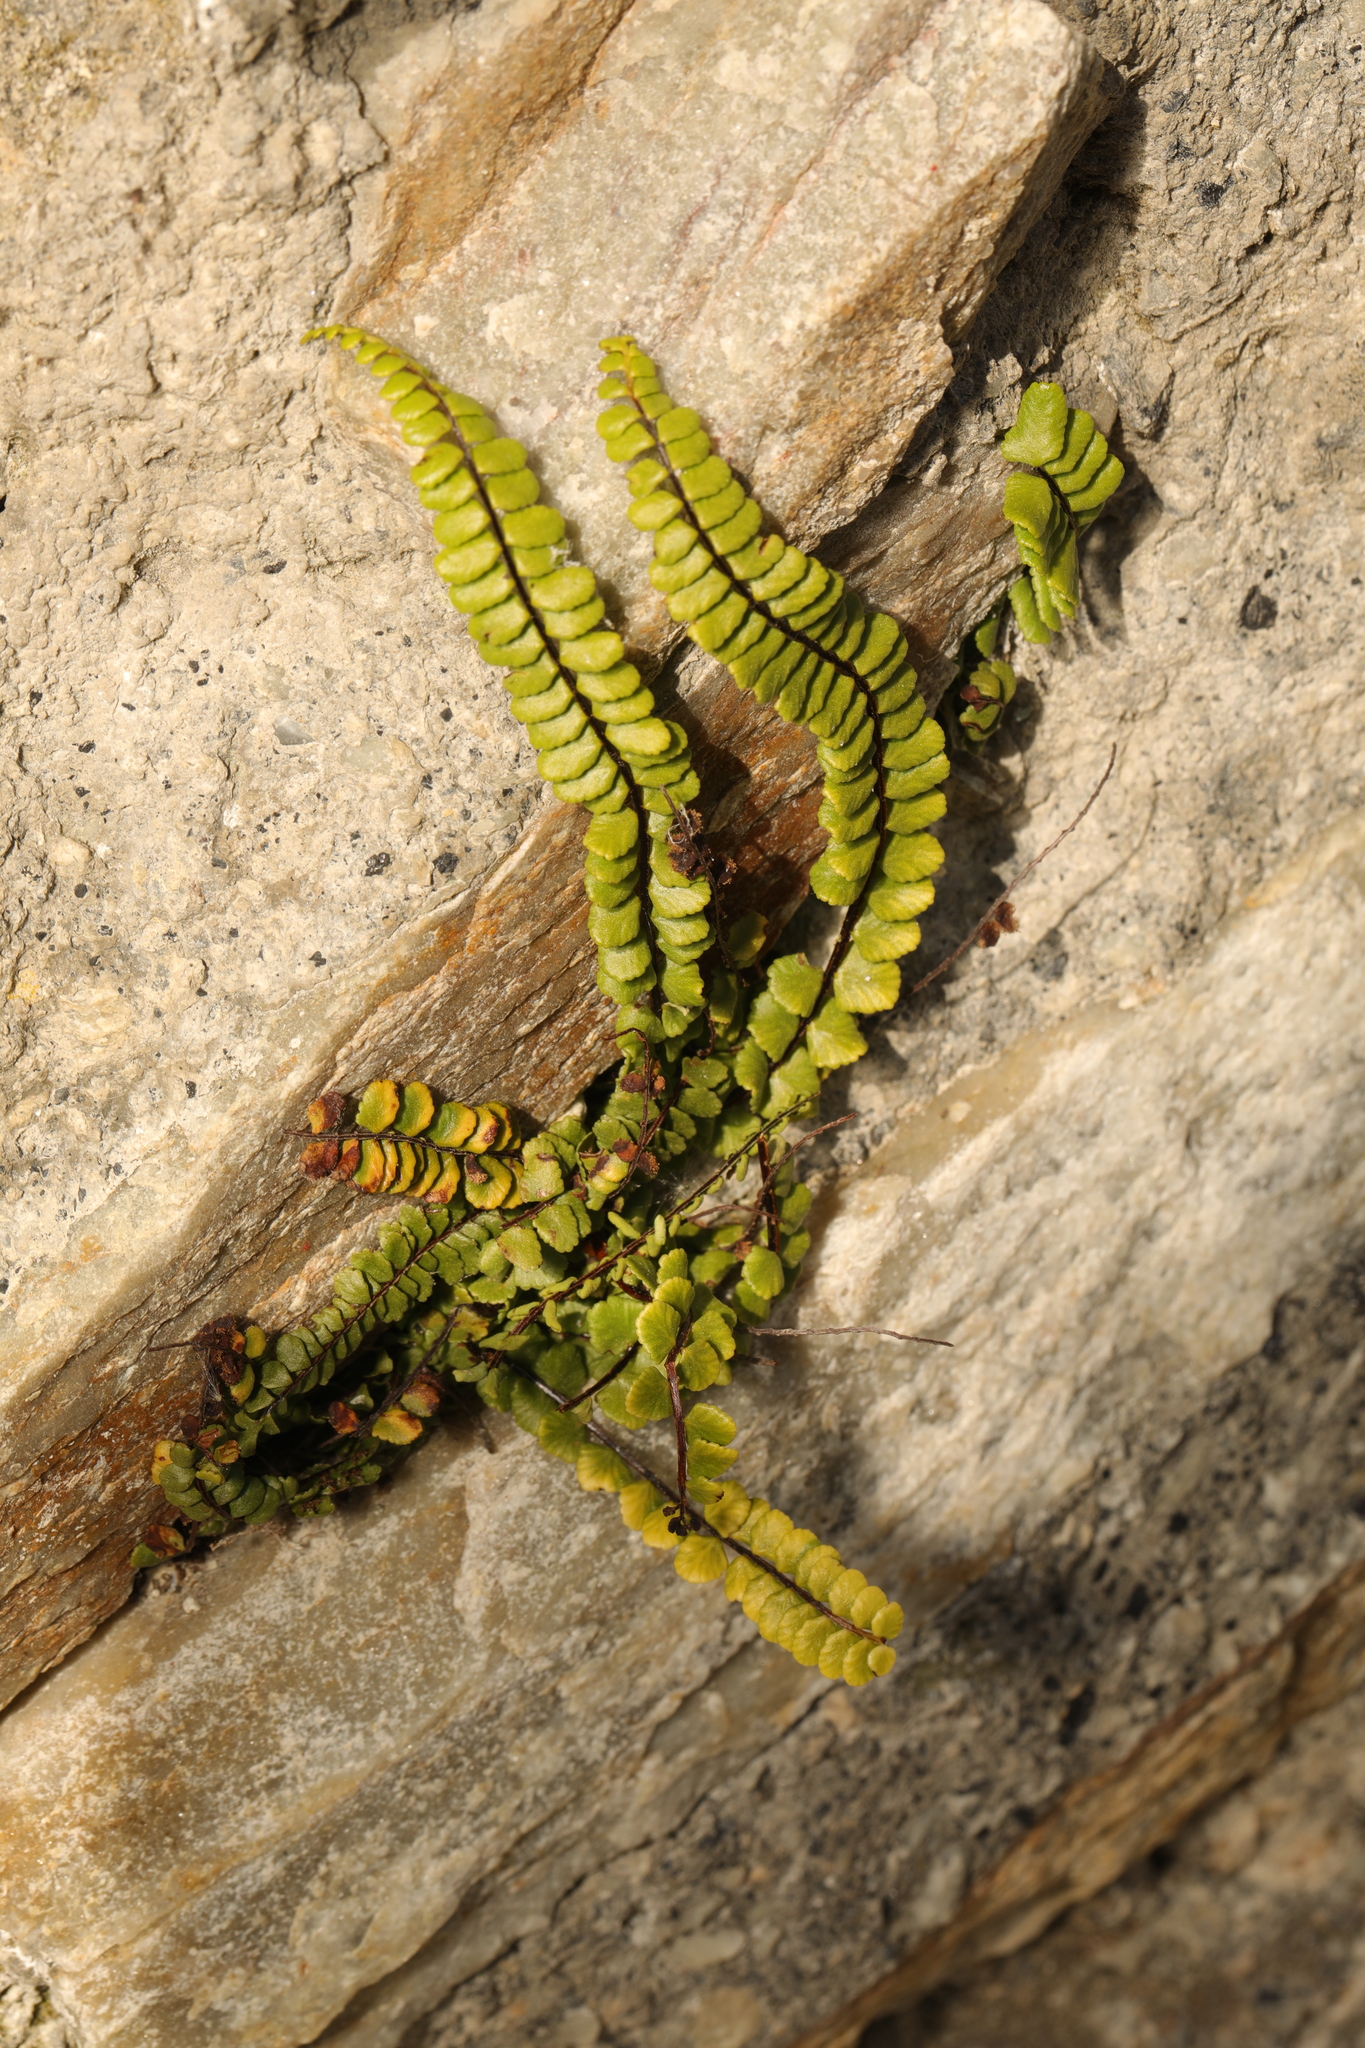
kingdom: Plantae
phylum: Tracheophyta
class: Polypodiopsida
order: Polypodiales
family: Aspleniaceae
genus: Asplenium
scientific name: Asplenium trichomanes
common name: Maidenhair spleenwort
